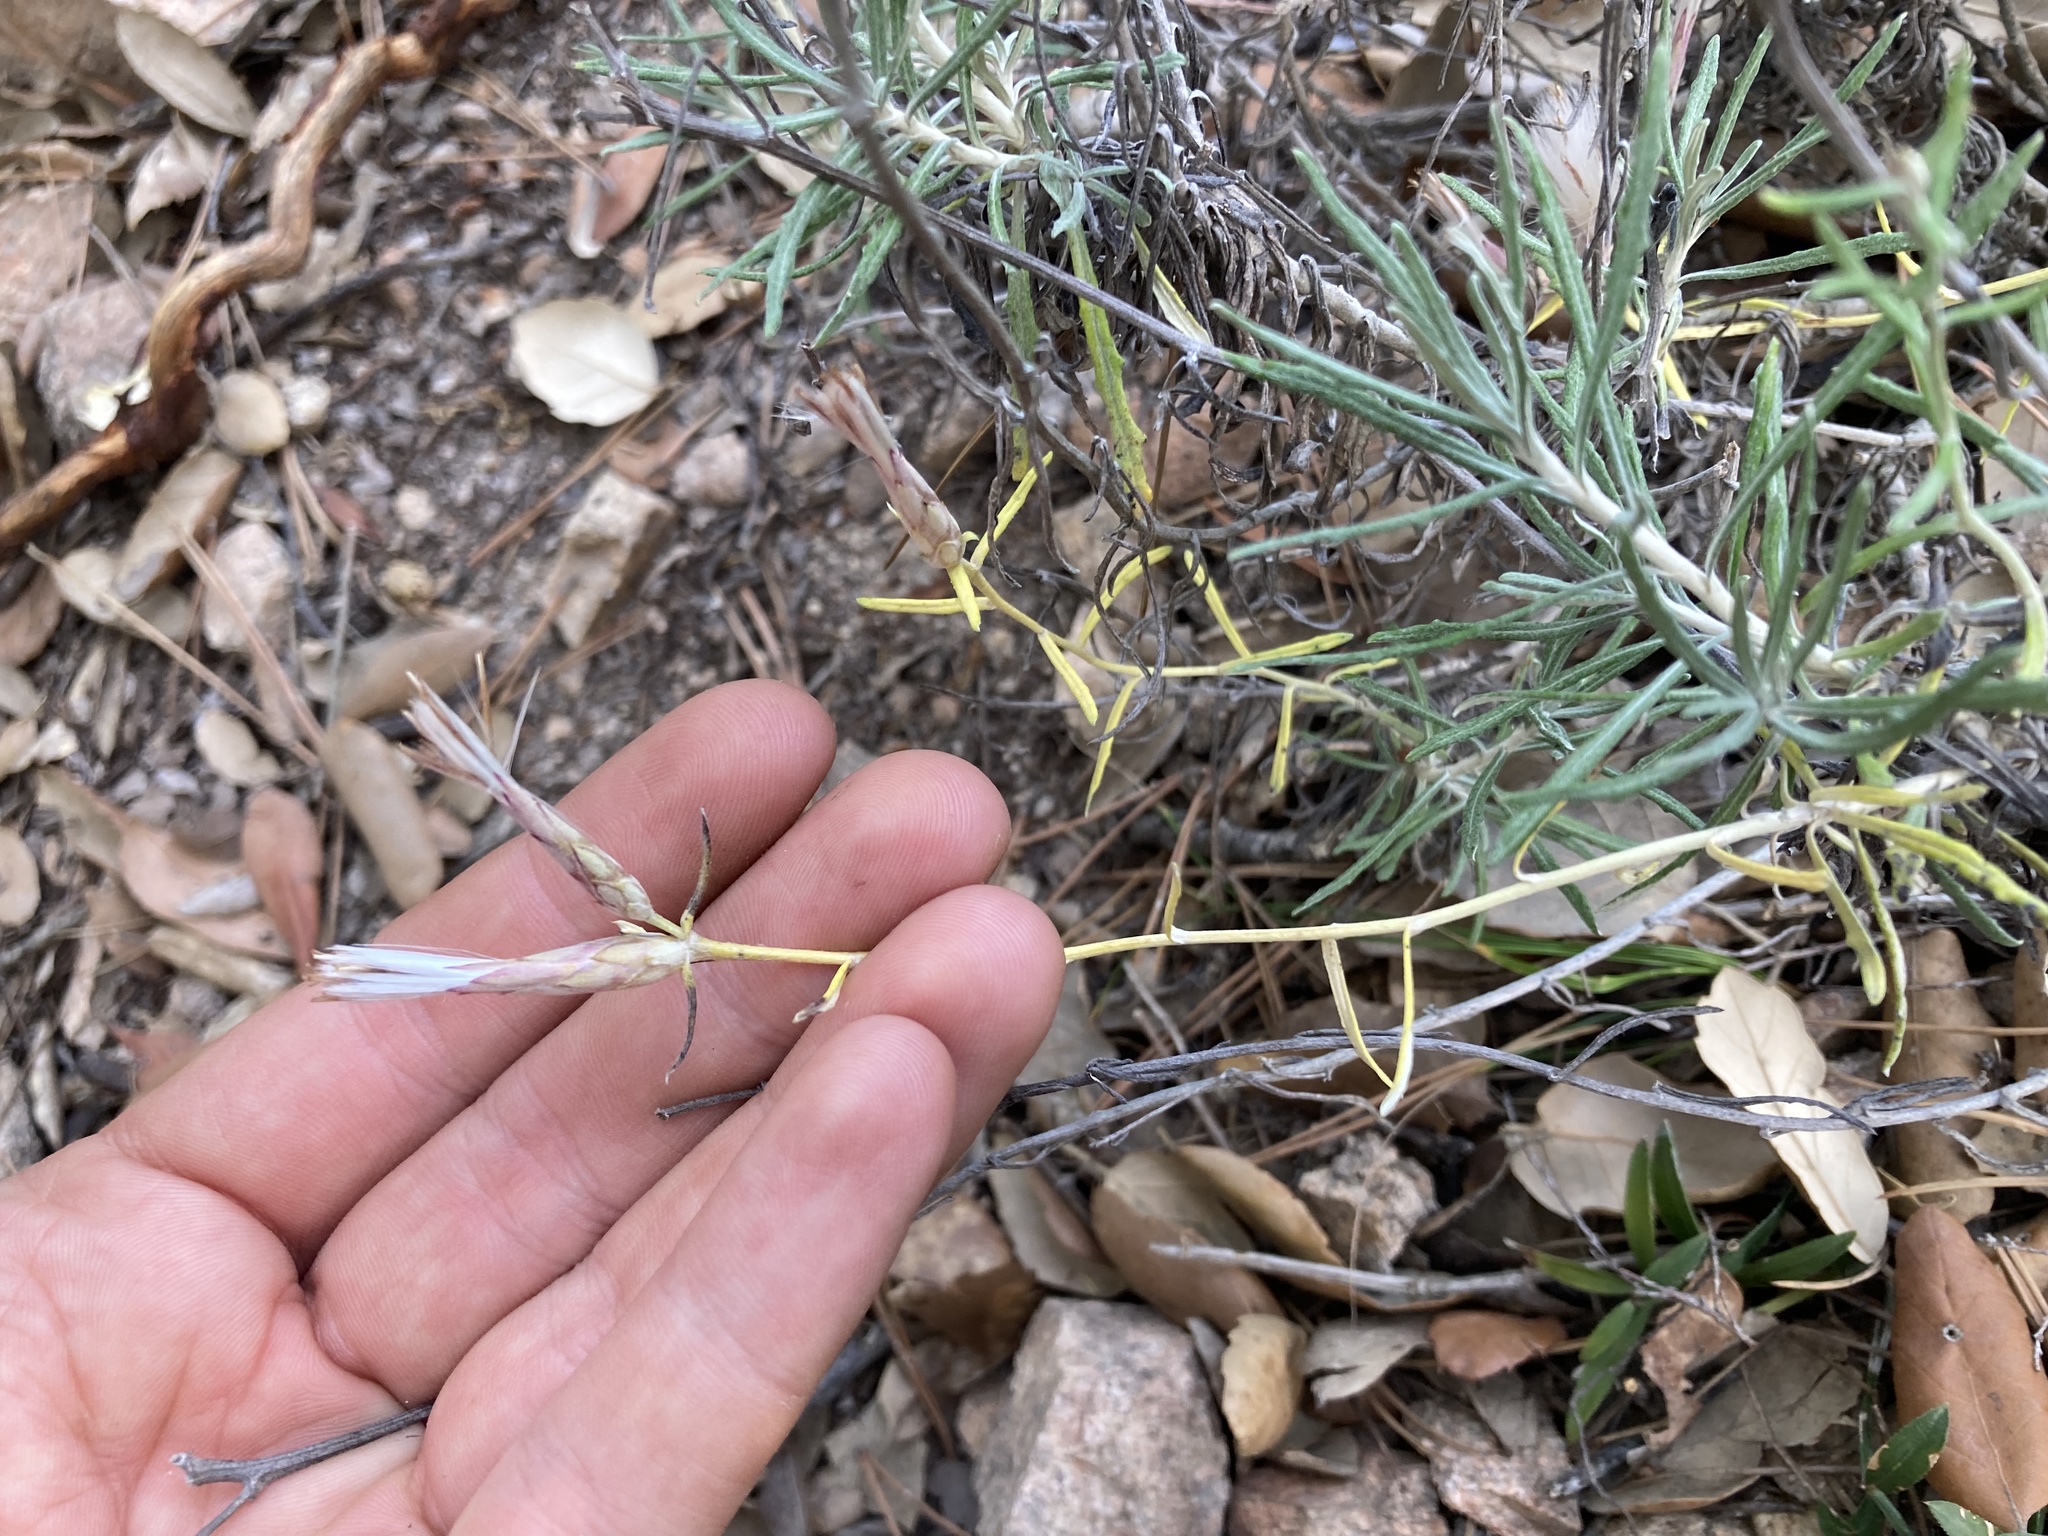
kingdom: Plantae
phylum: Tracheophyta
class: Magnoliopsida
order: Asterales
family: Asteraceae
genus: Staehelina
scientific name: Staehelina dubia
